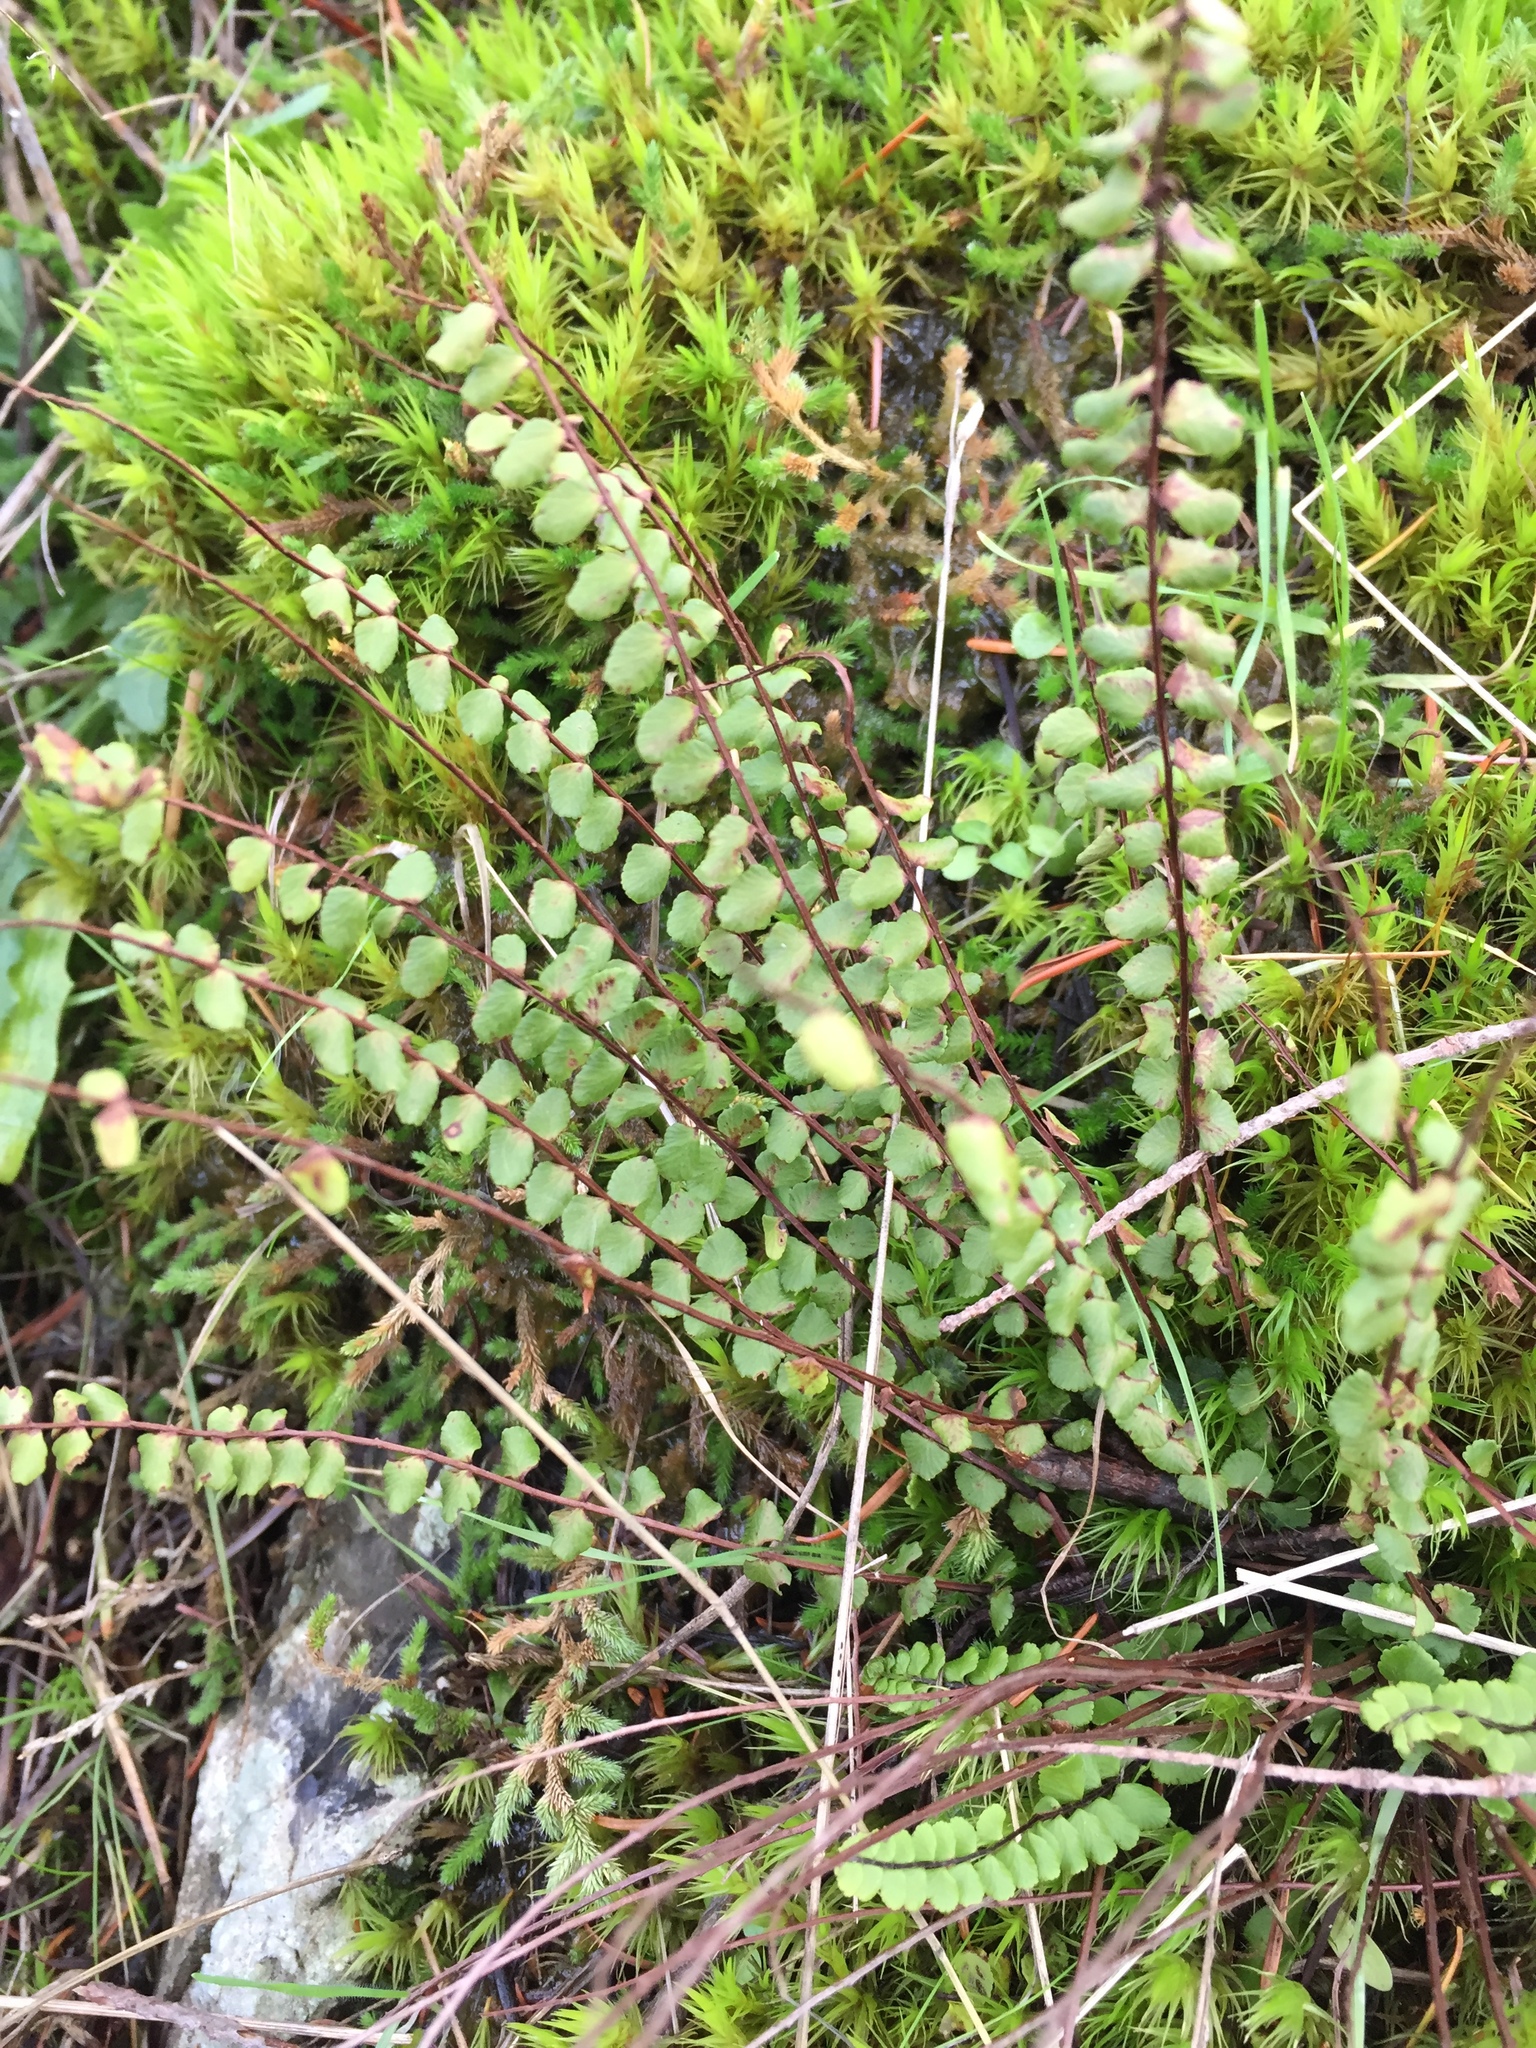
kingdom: Plantae
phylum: Tracheophyta
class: Polypodiopsida
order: Polypodiales
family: Aspleniaceae
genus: Asplenium
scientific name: Asplenium trichomanes
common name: Maidenhair spleenwort
